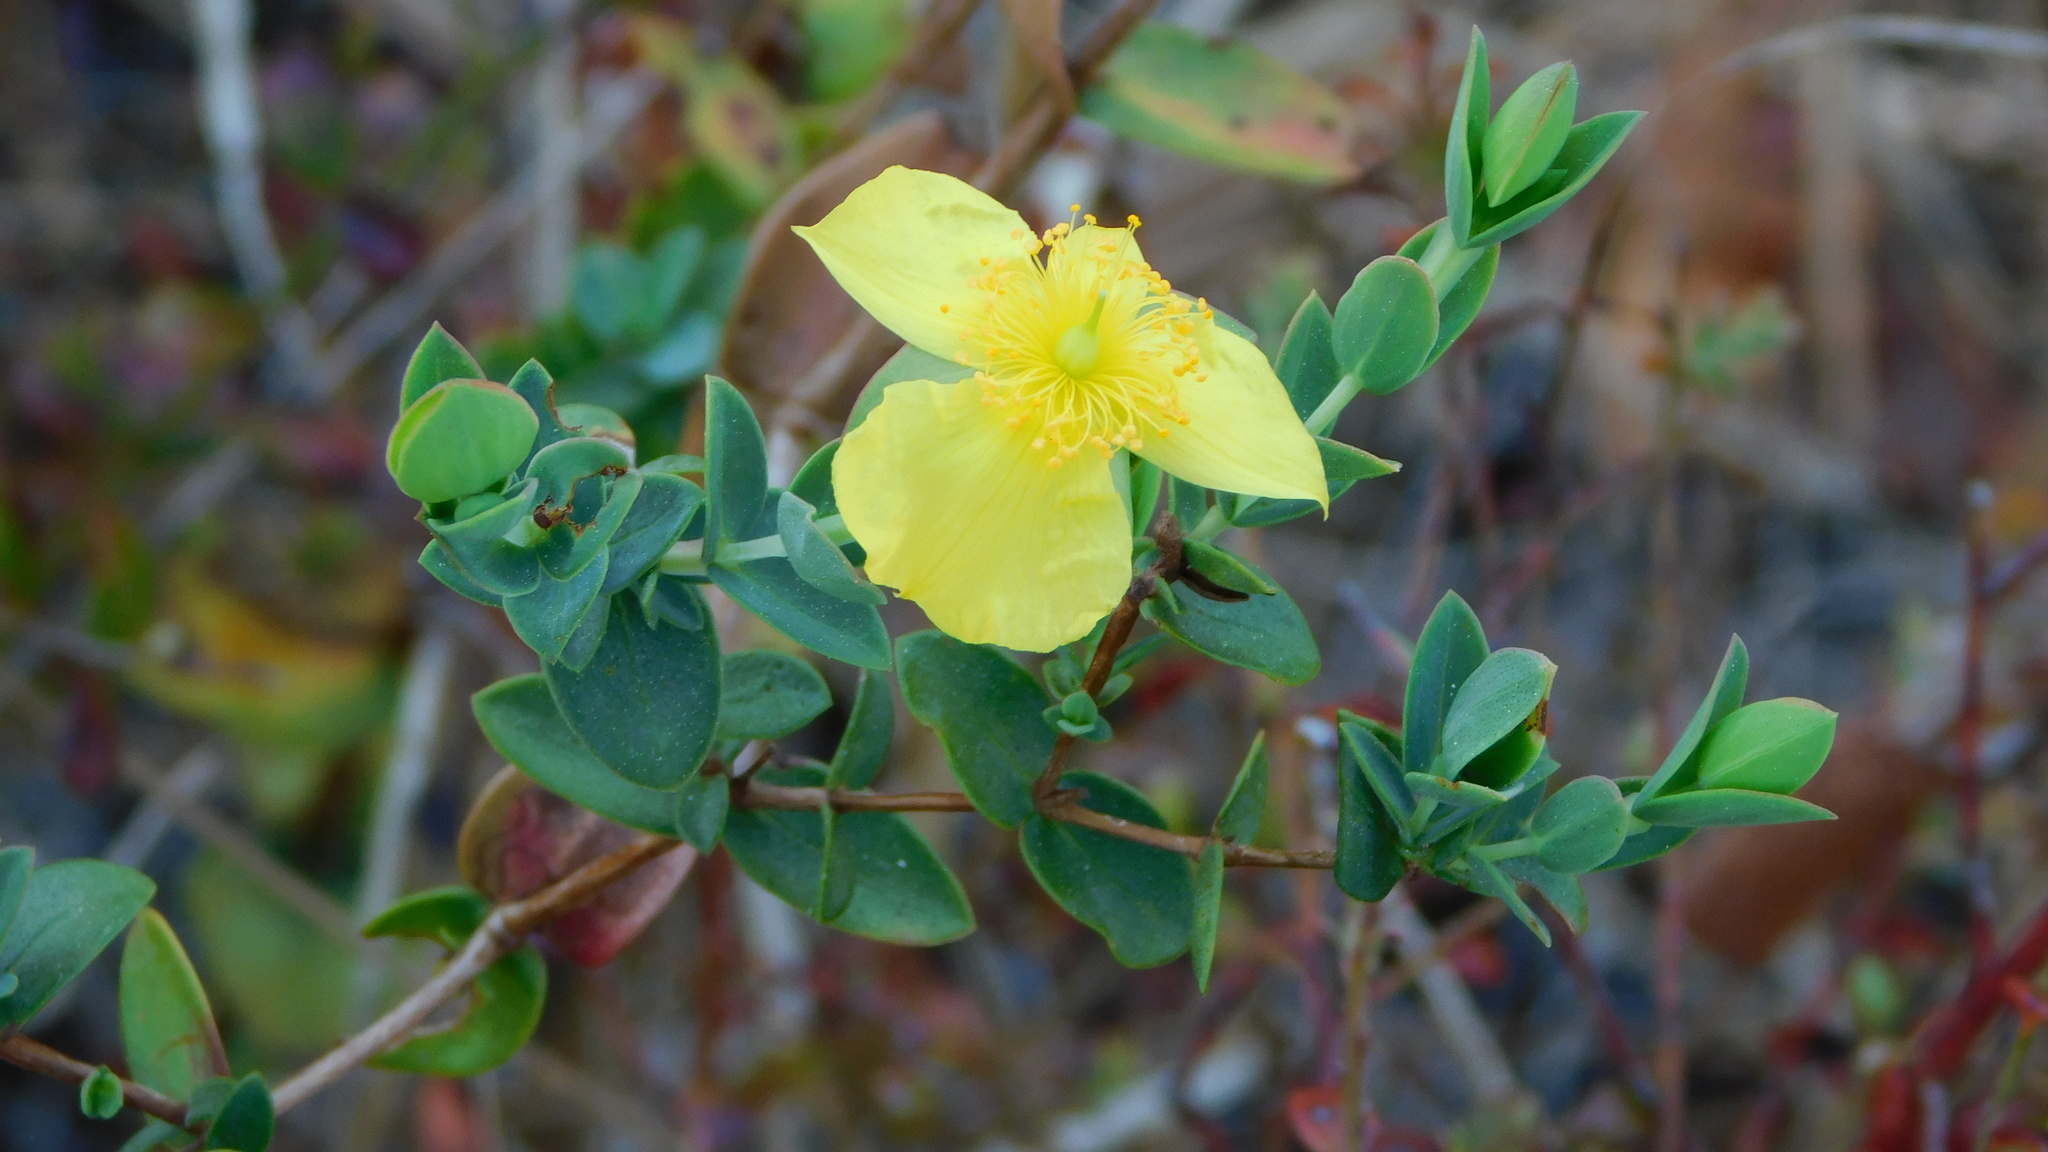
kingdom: Plantae
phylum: Tracheophyta
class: Magnoliopsida
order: Malpighiales
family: Hypericaceae
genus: Hypericum
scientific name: Hypericum tetrapetalum
